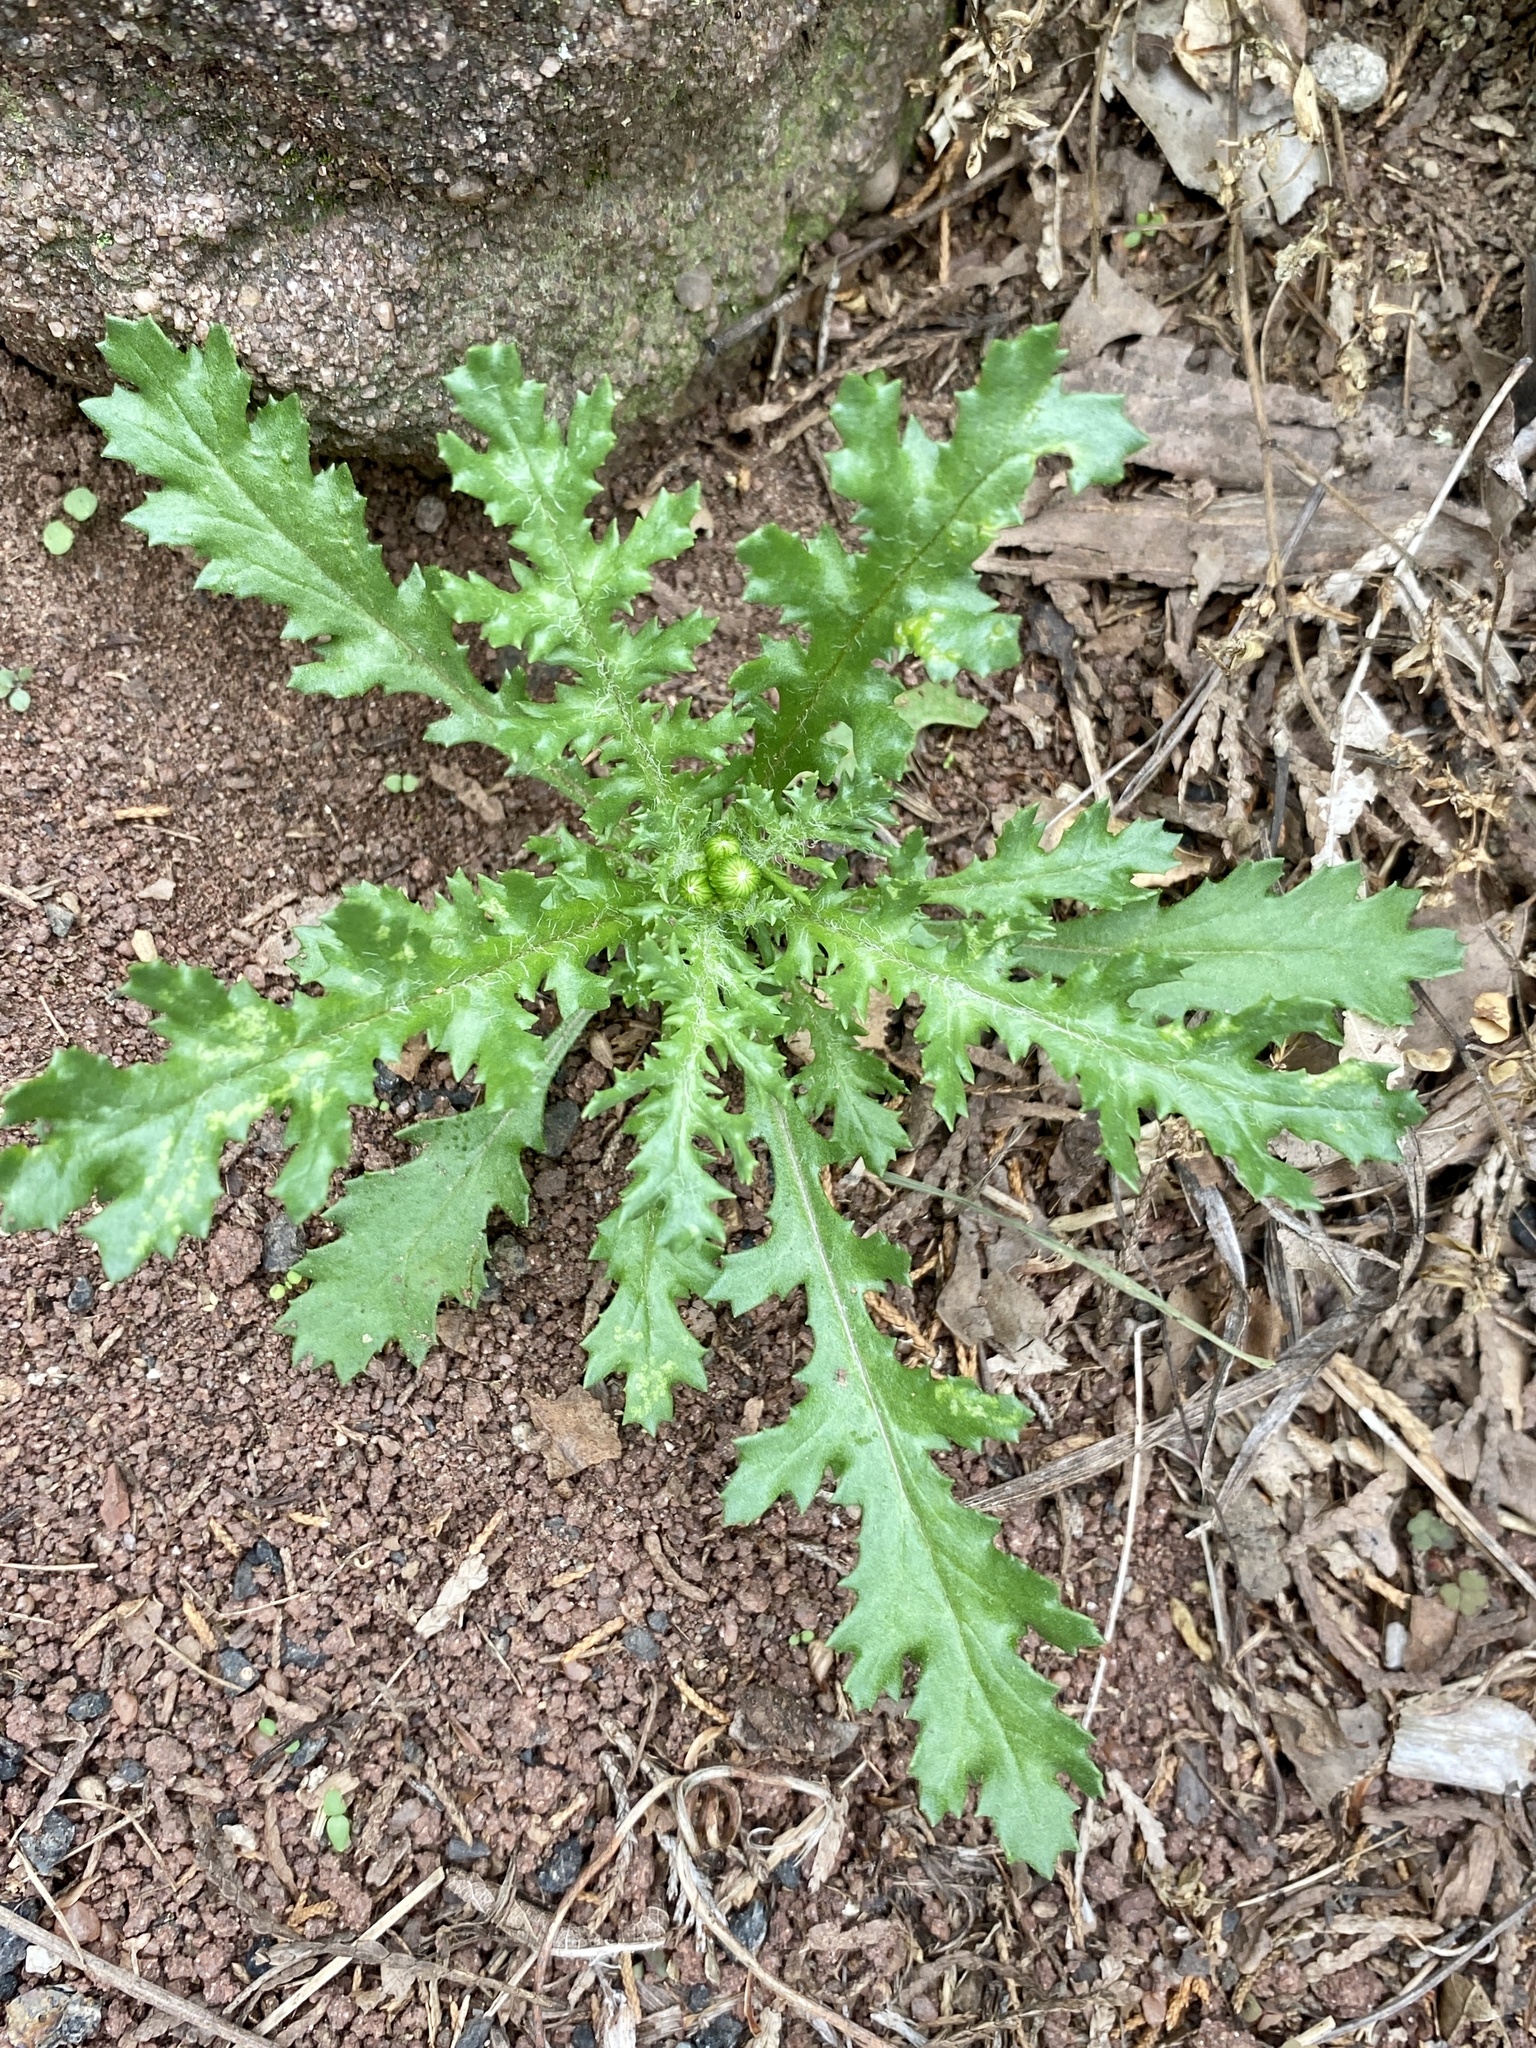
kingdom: Plantae
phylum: Tracheophyta
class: Magnoliopsida
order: Asterales
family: Asteraceae
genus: Senecio
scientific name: Senecio vulgaris
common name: Old-man-in-the-spring
